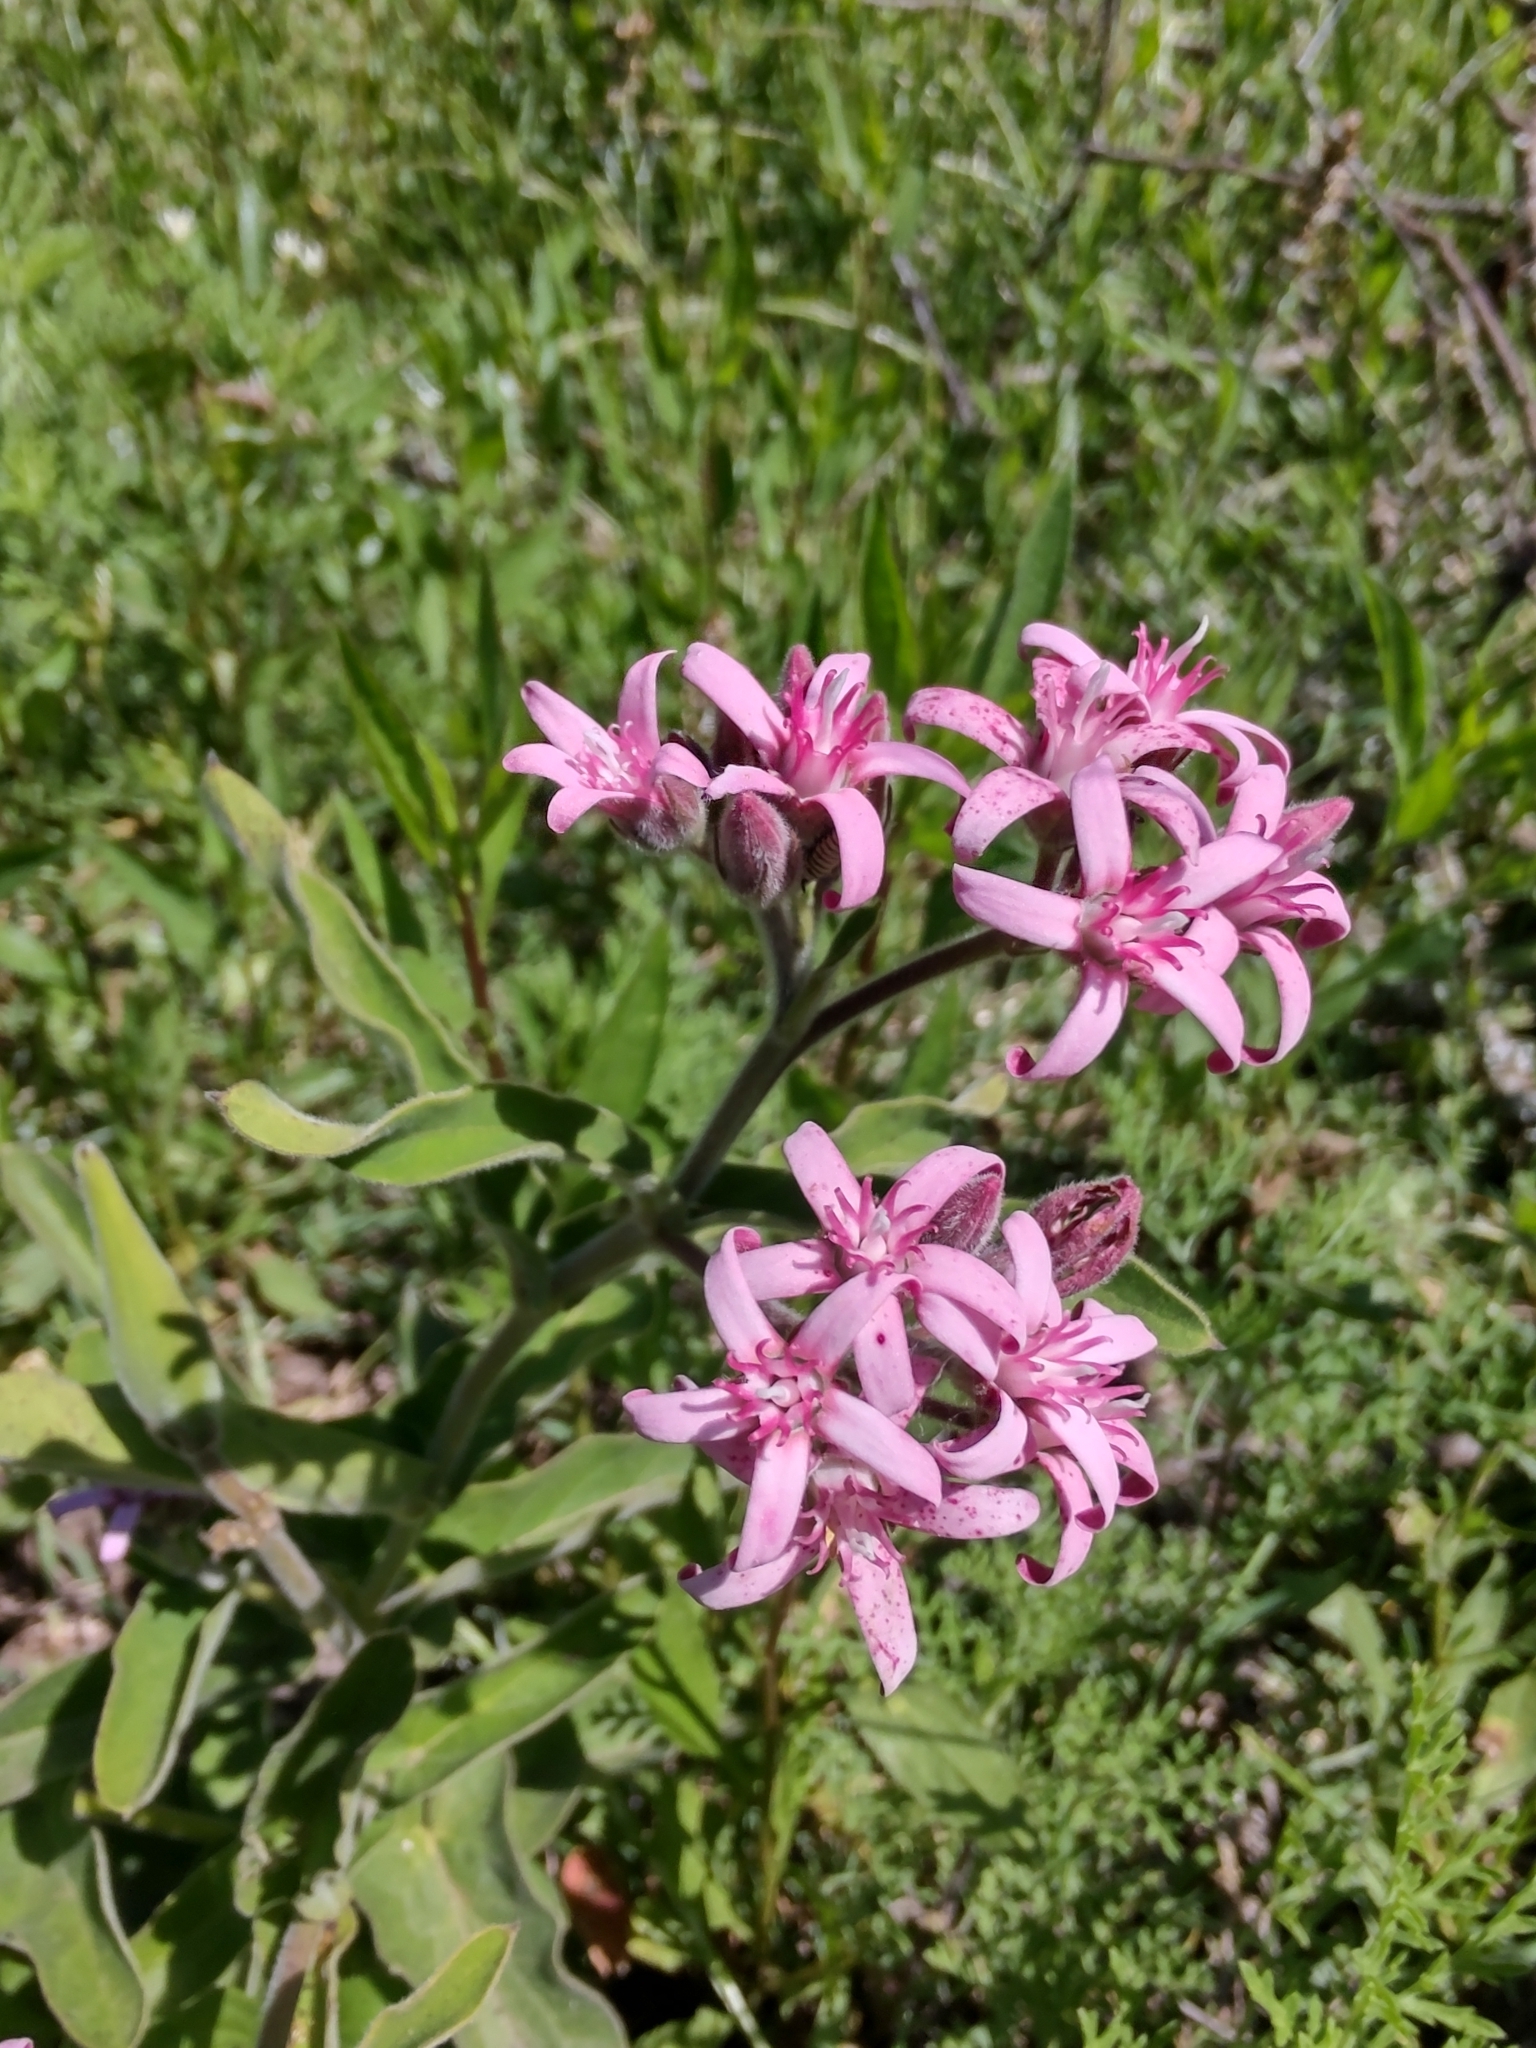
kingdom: Plantae
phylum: Tracheophyta
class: Magnoliopsida
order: Gentianales
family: Apocynaceae
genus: Oxypetalum
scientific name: Oxypetalum solanoides
